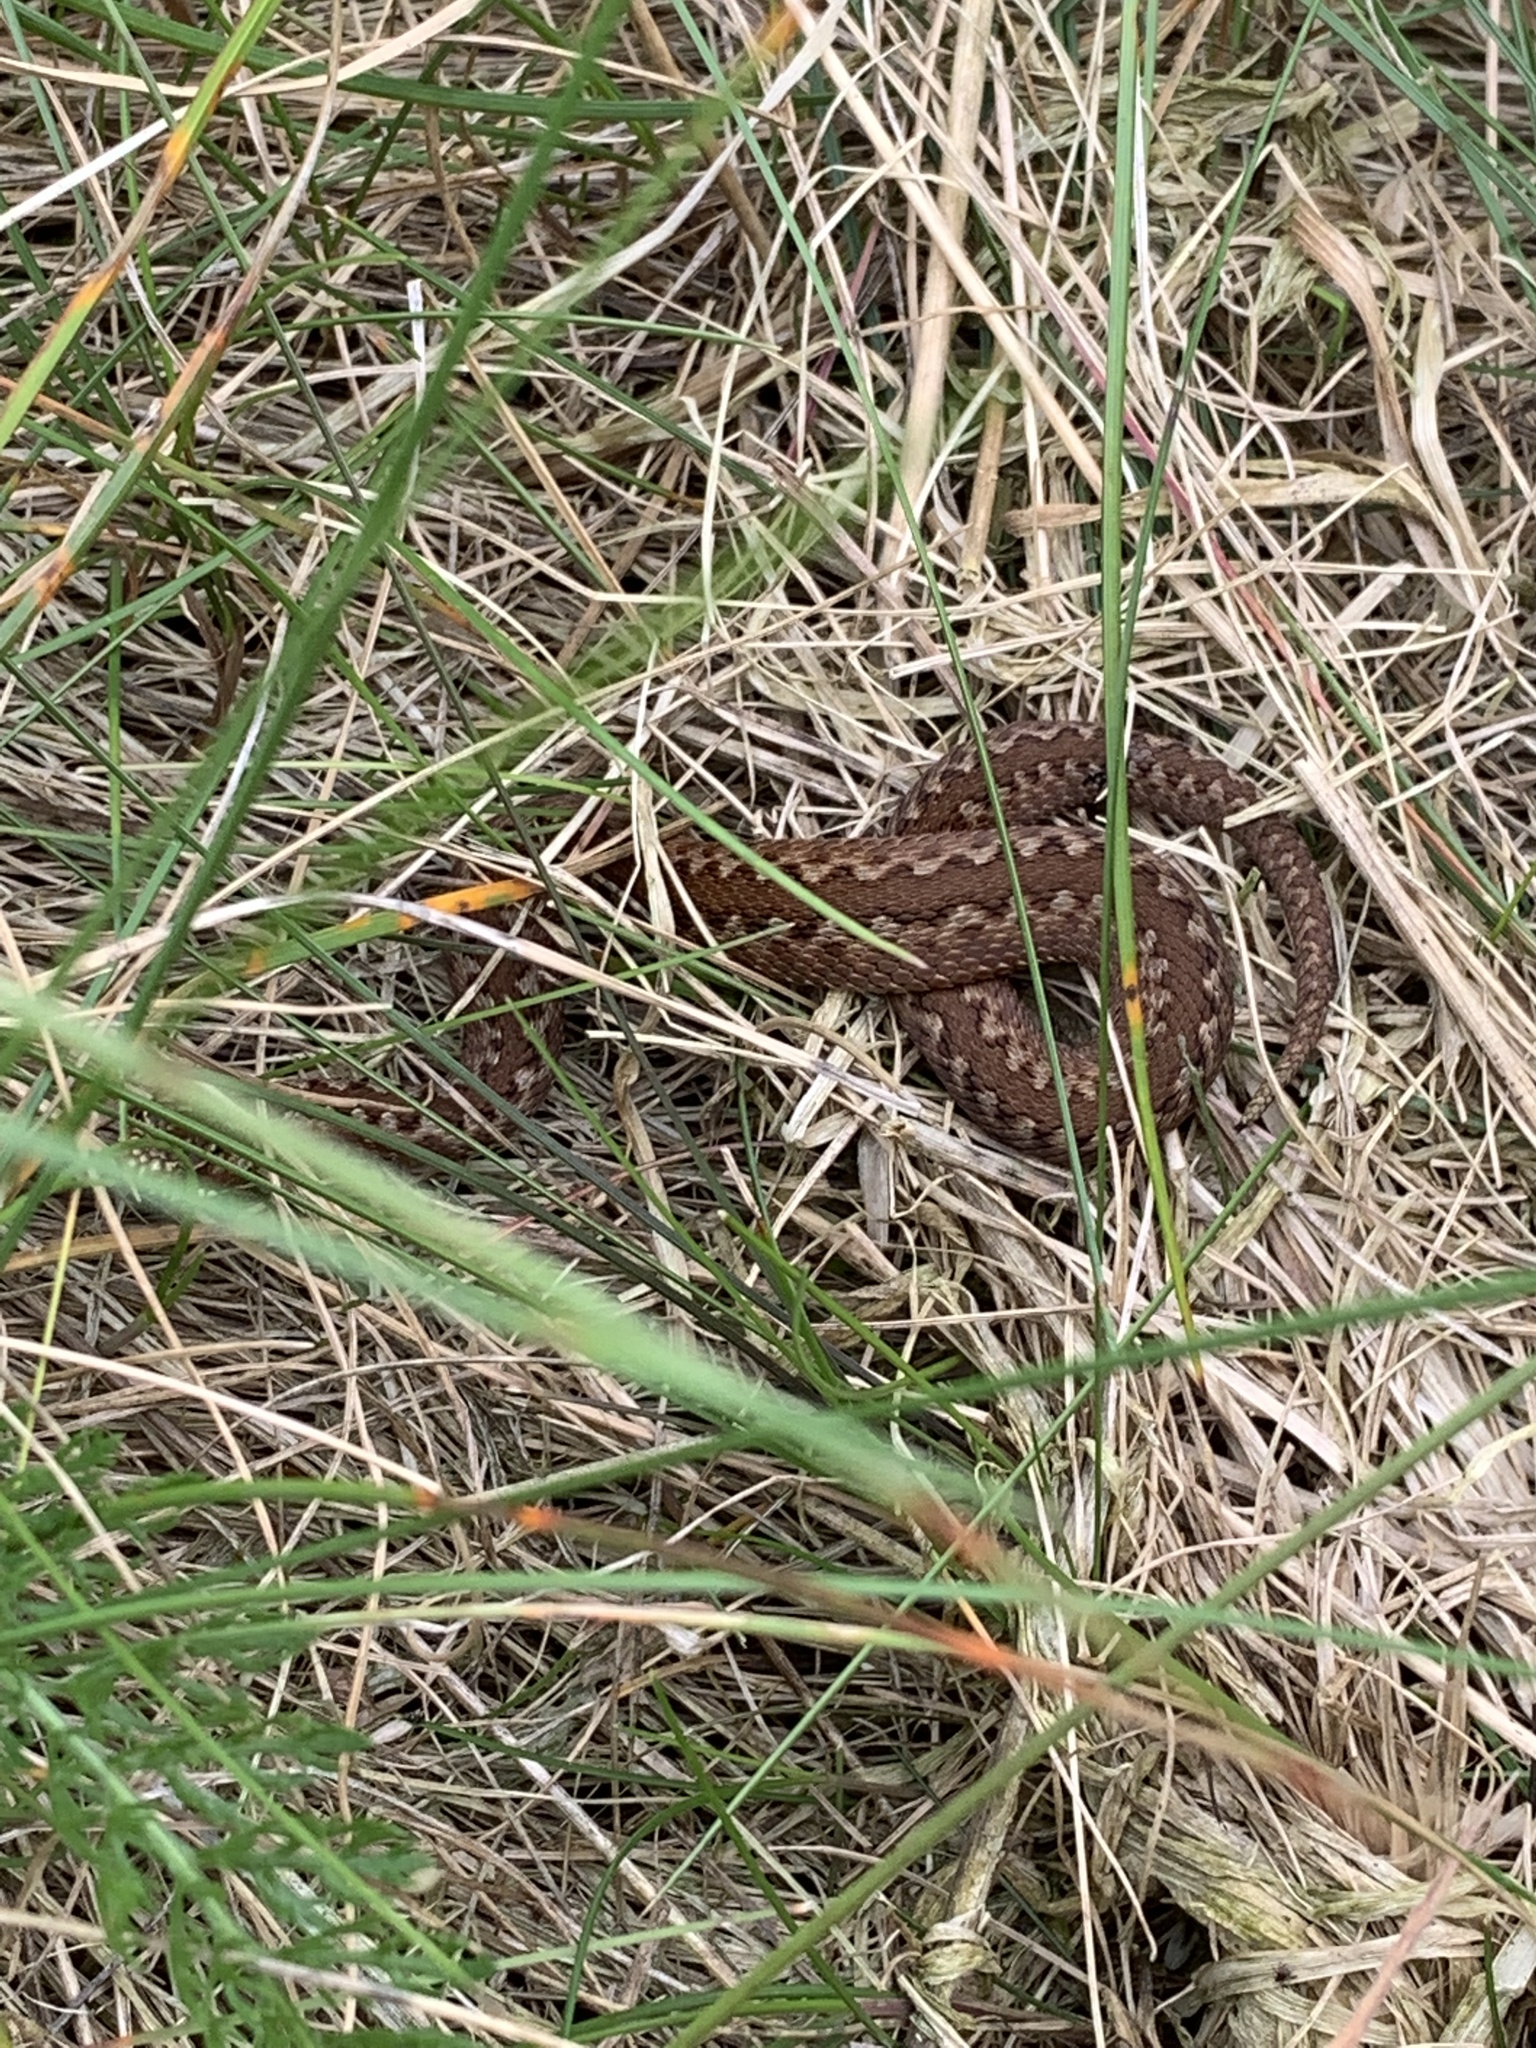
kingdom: Animalia
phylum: Chordata
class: Squamata
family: Viperidae
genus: Vipera
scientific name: Vipera berus
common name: Adder
